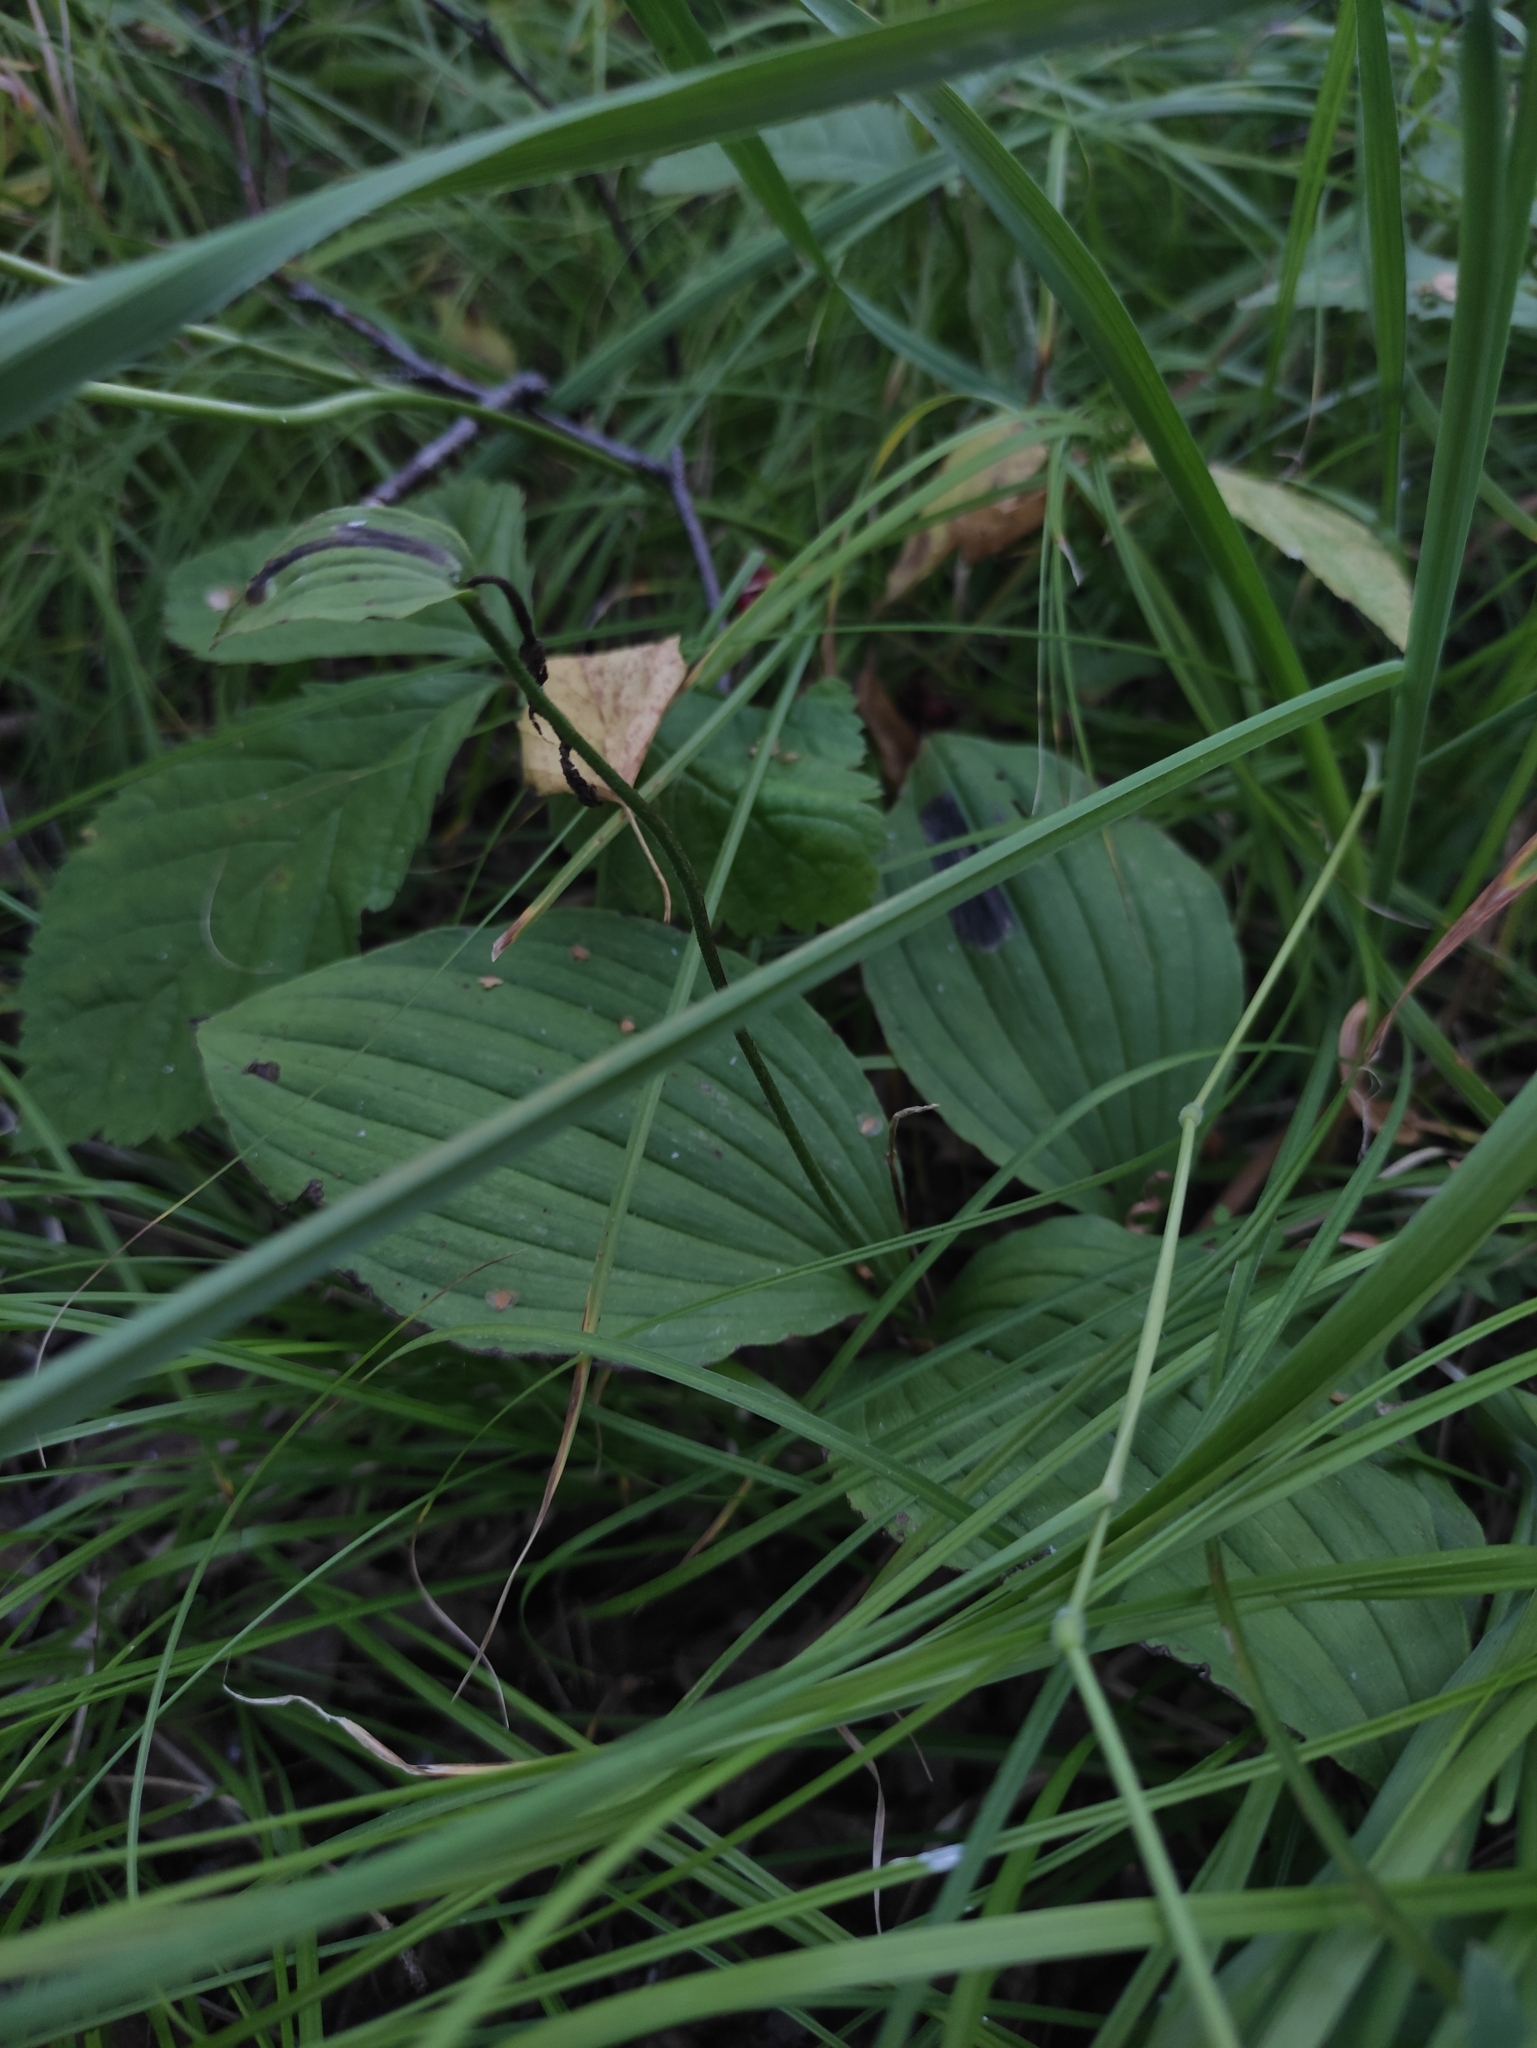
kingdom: Plantae
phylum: Tracheophyta
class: Liliopsida
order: Asparagales
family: Orchidaceae
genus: Cypripedium
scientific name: Cypripedium guttatum
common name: Pink lady slipper
